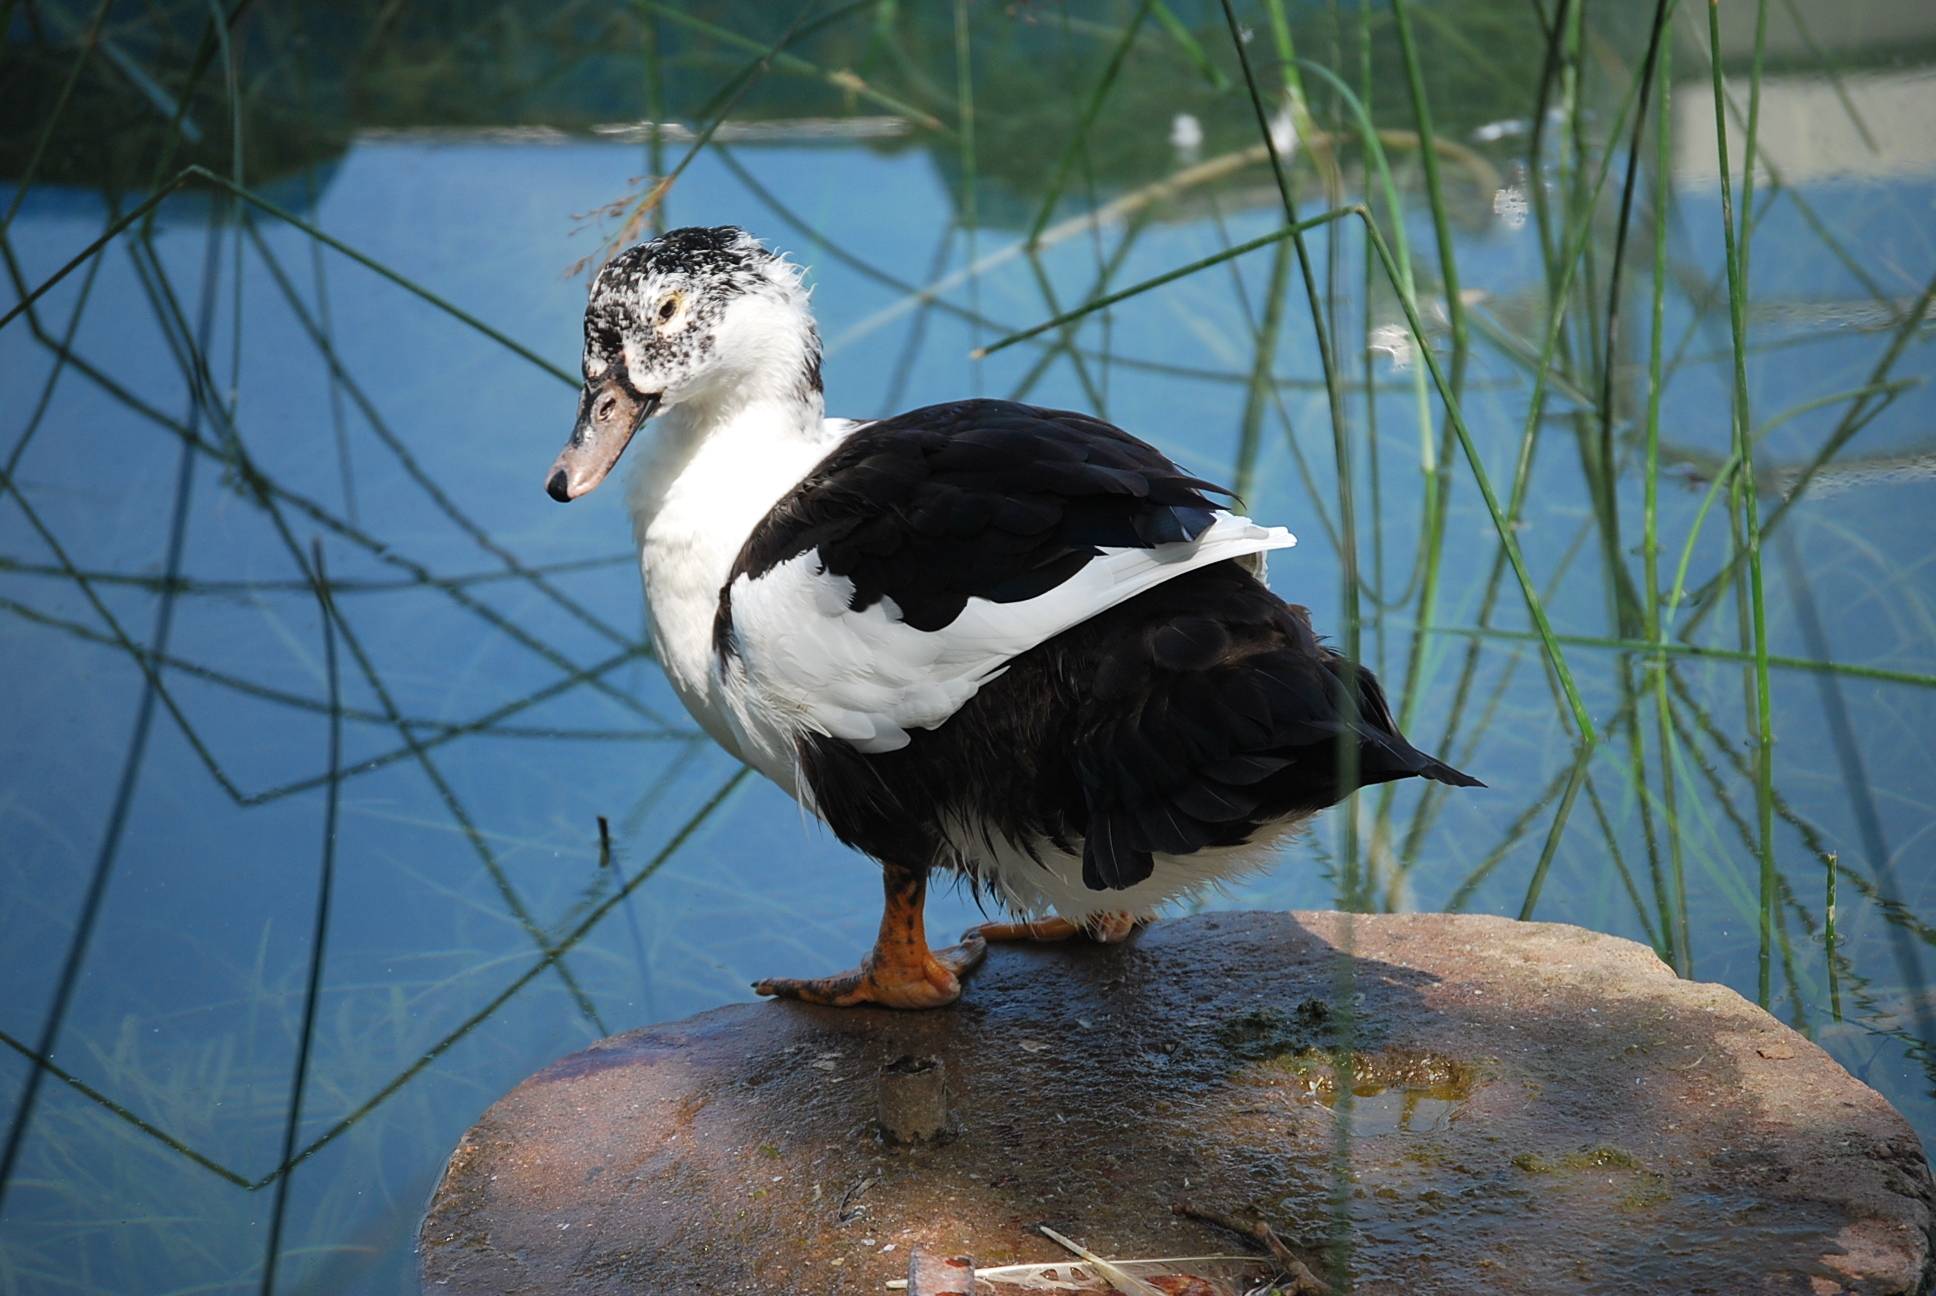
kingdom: Animalia
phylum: Chordata
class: Aves
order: Anseriformes
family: Anatidae
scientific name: Anatidae
